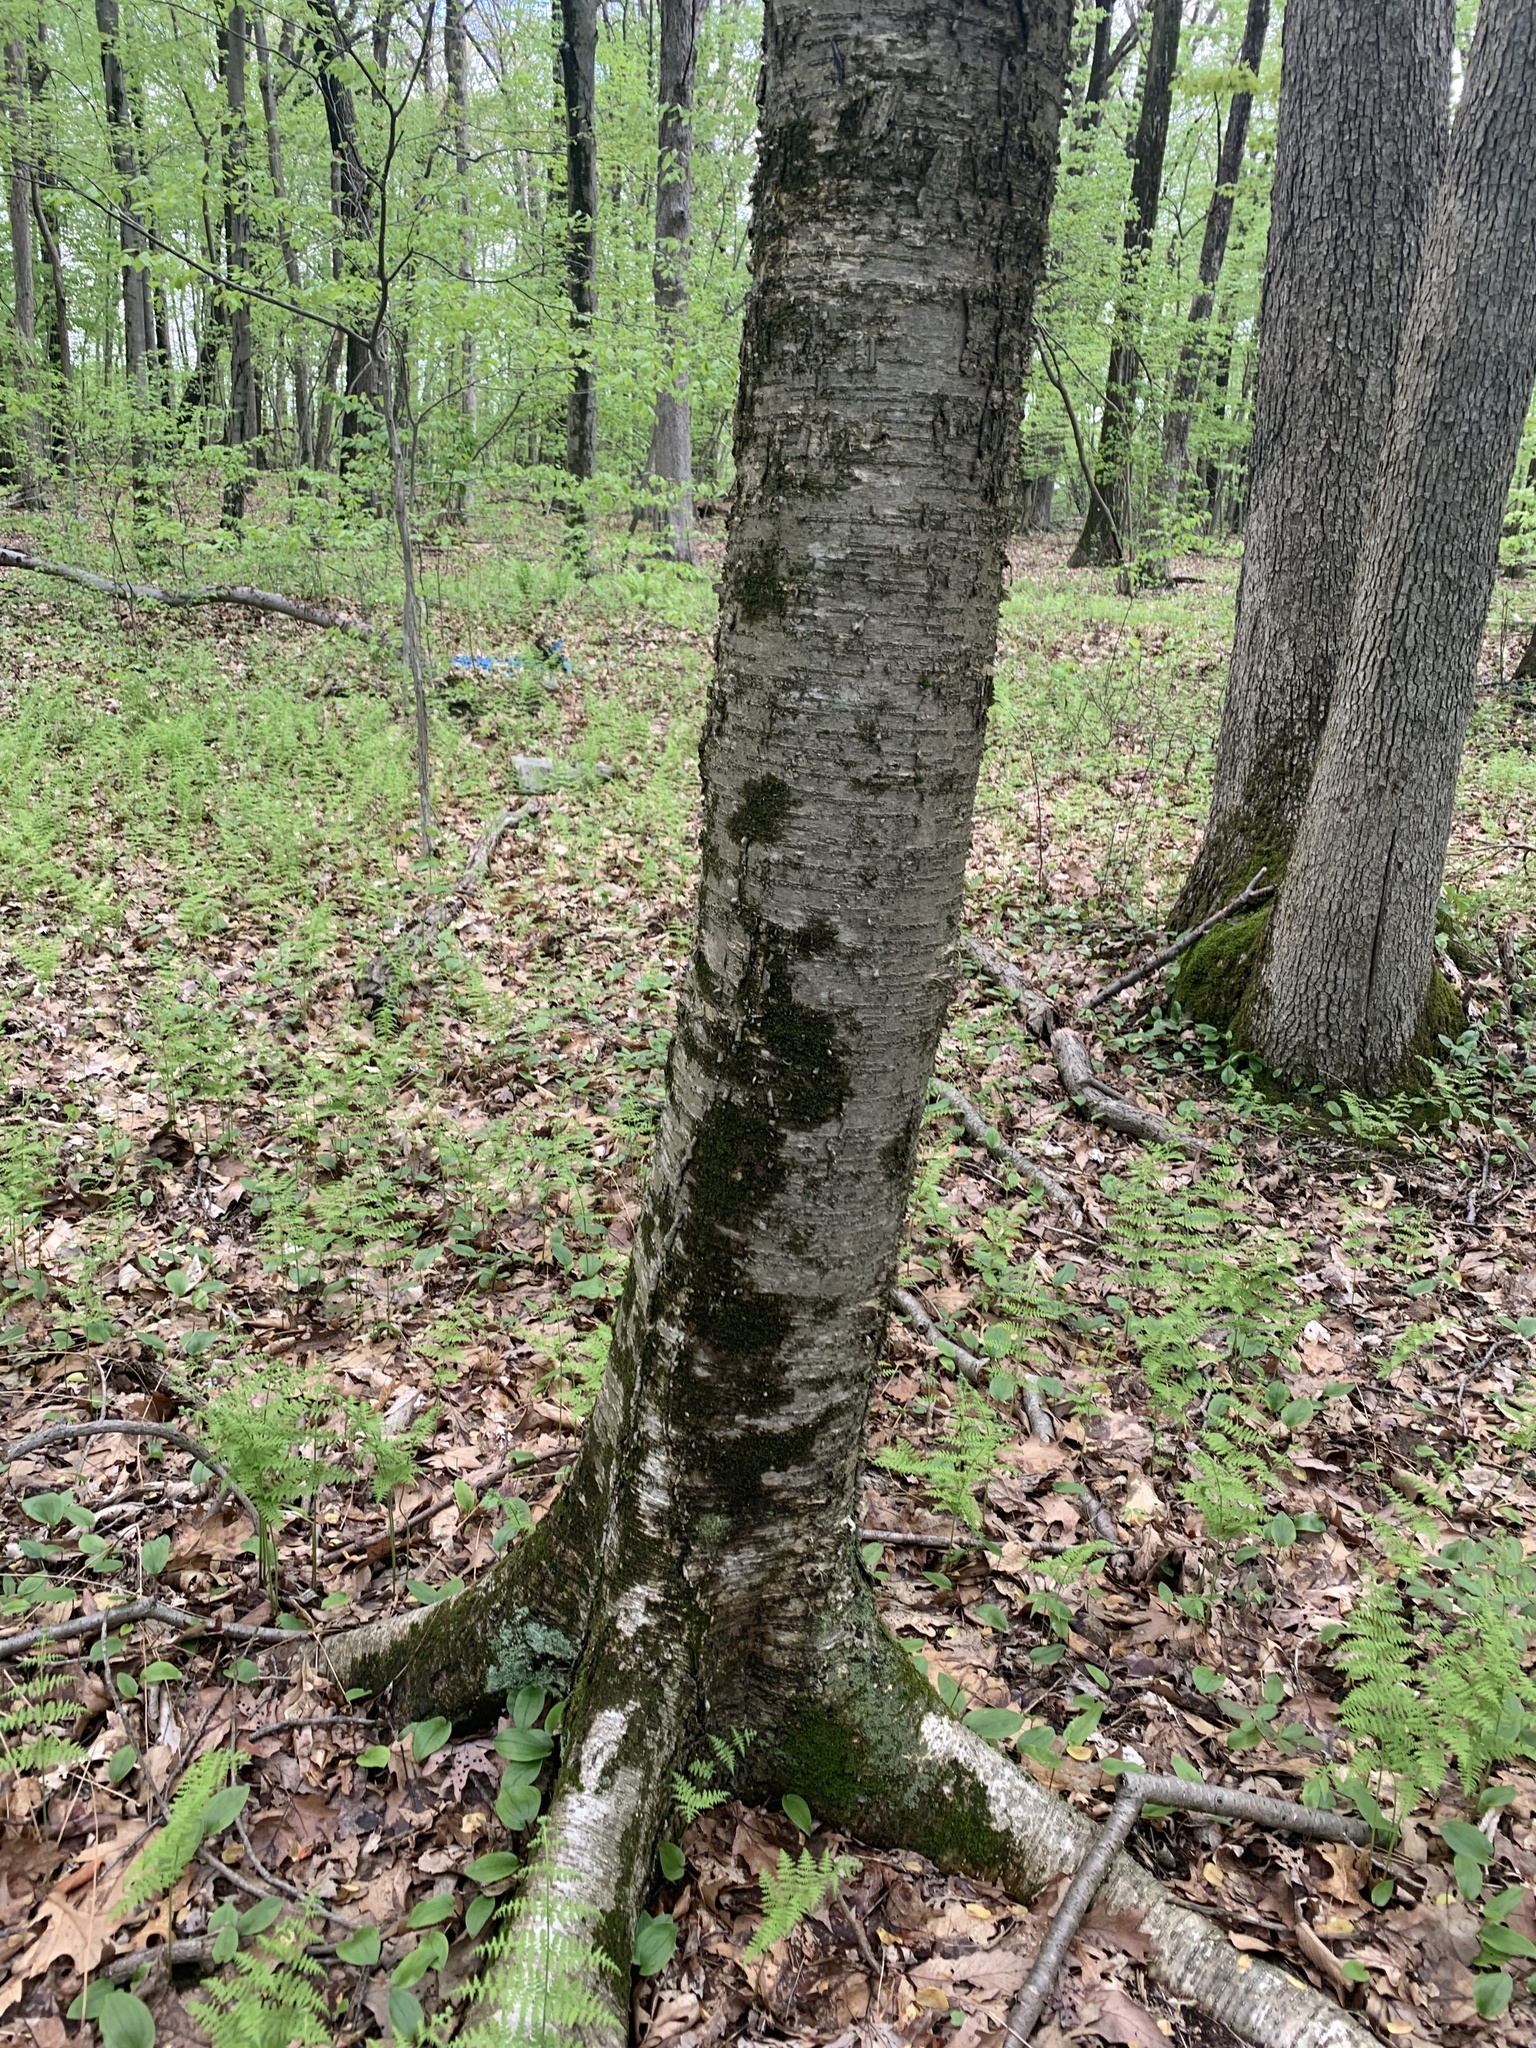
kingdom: Plantae
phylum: Tracheophyta
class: Magnoliopsida
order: Fagales
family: Betulaceae
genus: Betula
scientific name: Betula alleghaniensis
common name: Yellow birch
